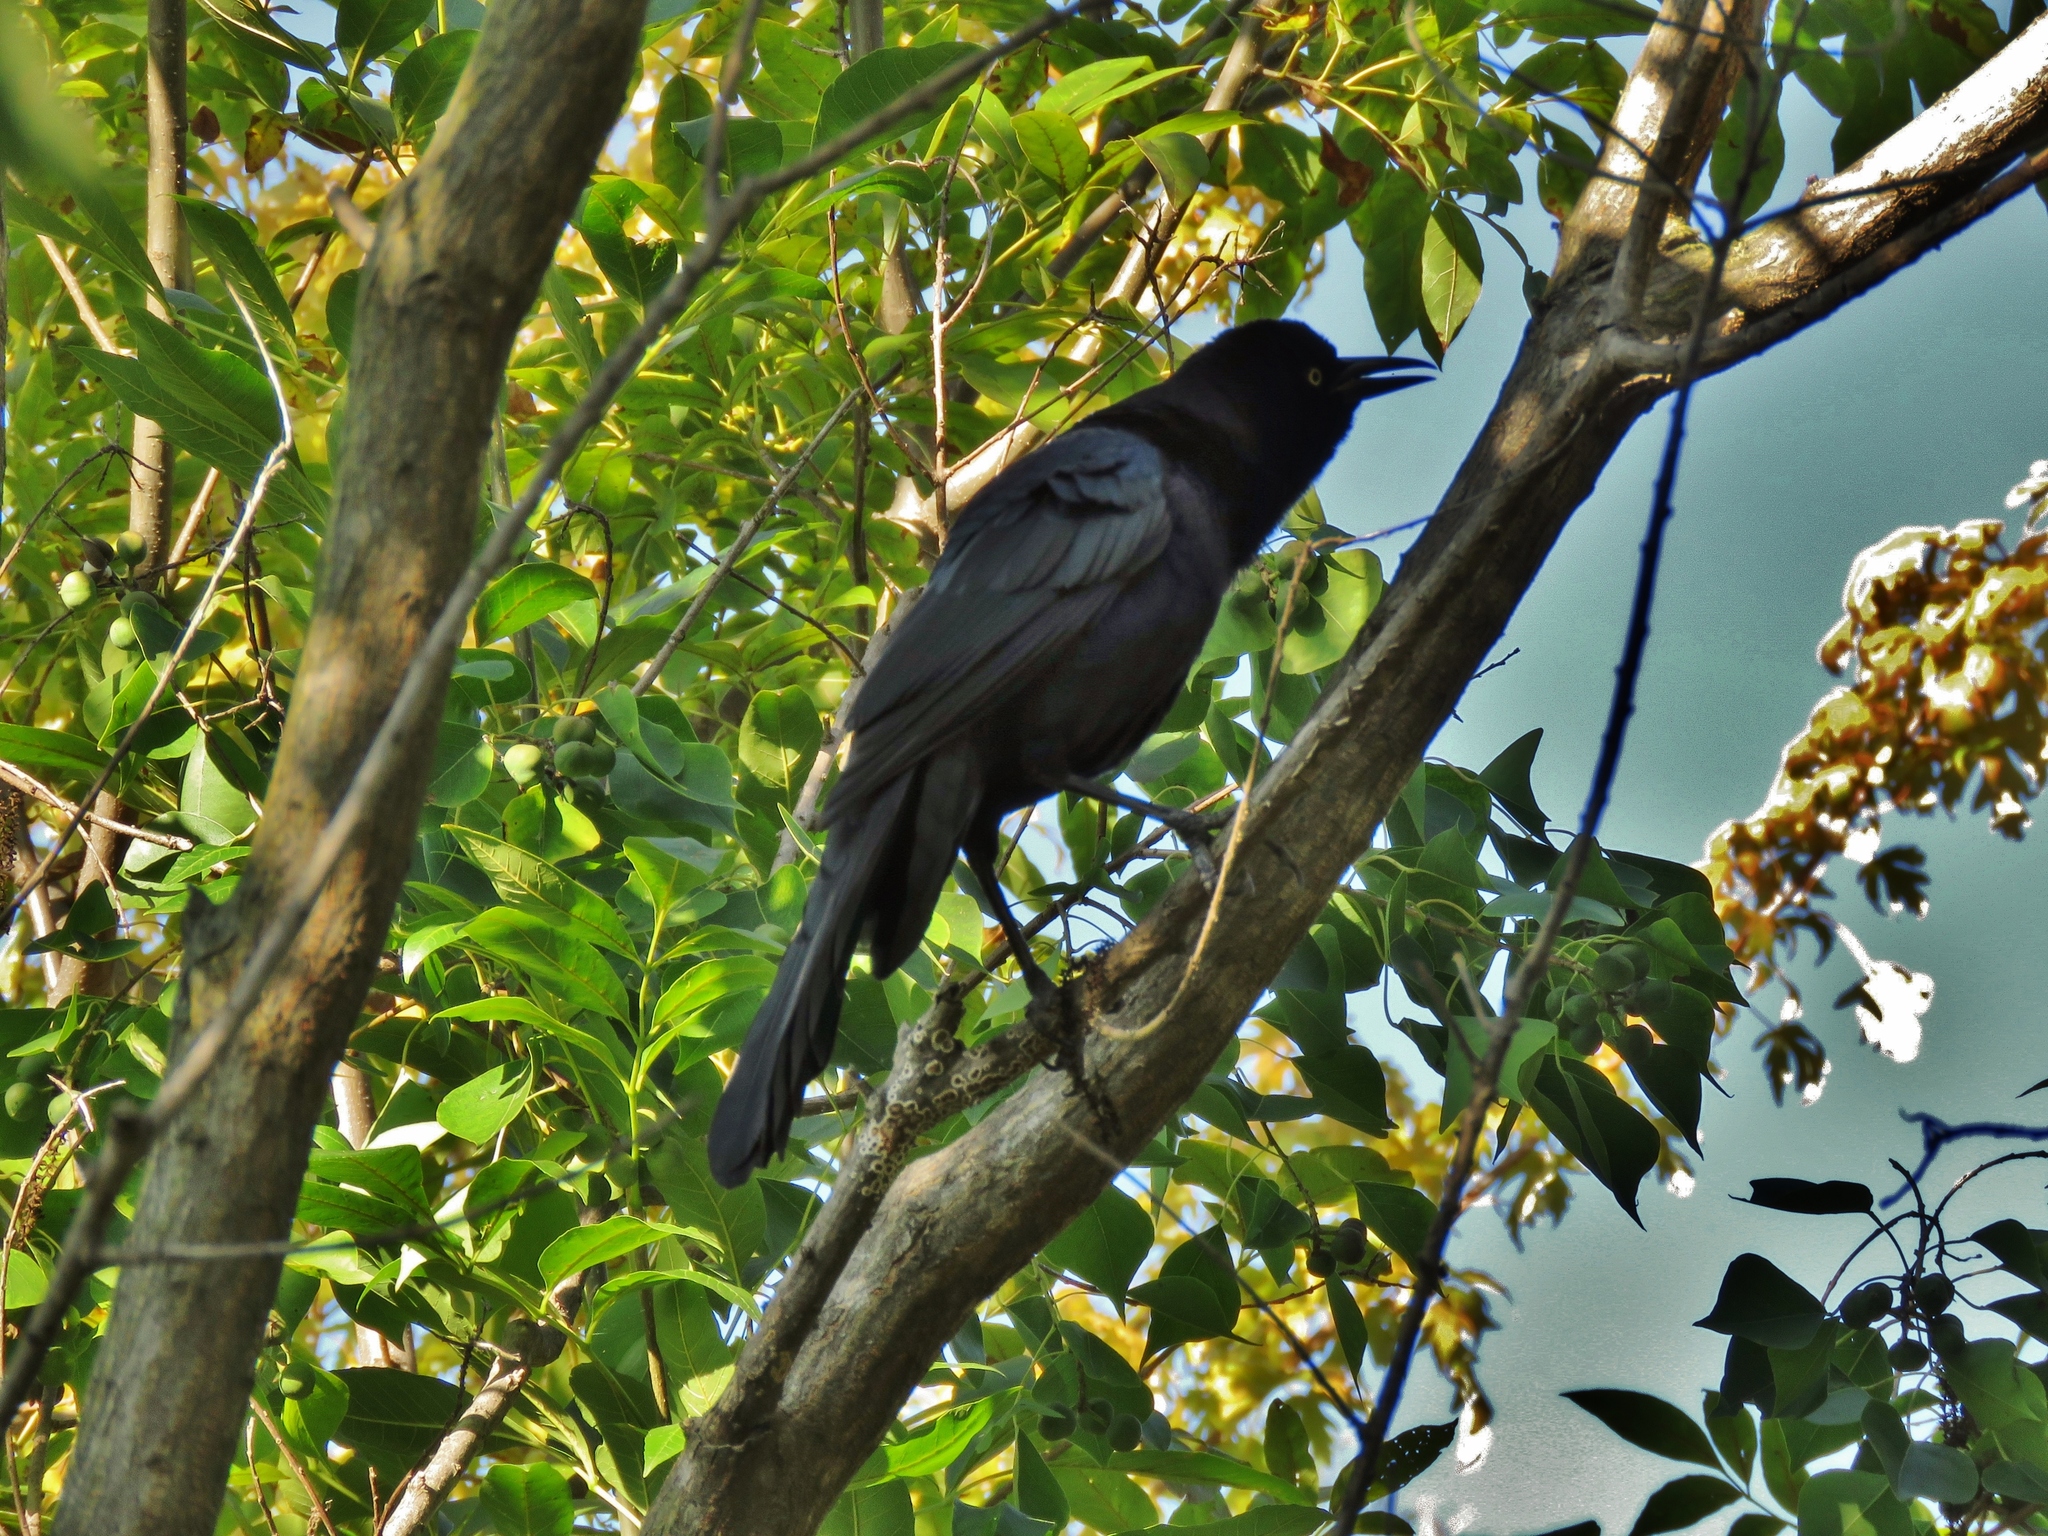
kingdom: Animalia
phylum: Chordata
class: Aves
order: Passeriformes
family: Icteridae
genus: Quiscalus
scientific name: Quiscalus mexicanus
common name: Great-tailed grackle
